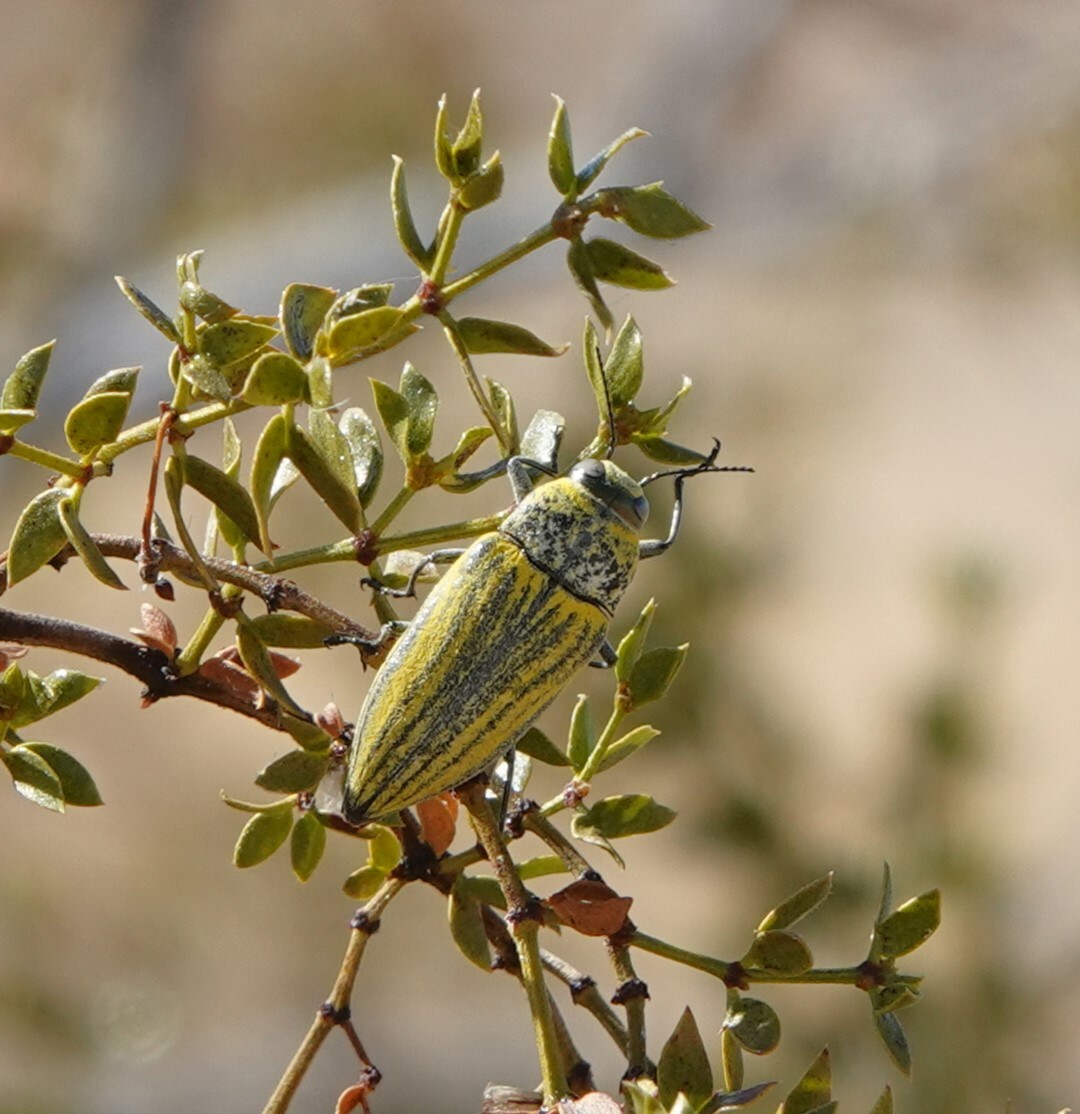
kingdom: Animalia
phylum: Arthropoda
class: Insecta
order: Coleoptera
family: Buprestidae
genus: Gyascutus
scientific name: Gyascutus planicosta
